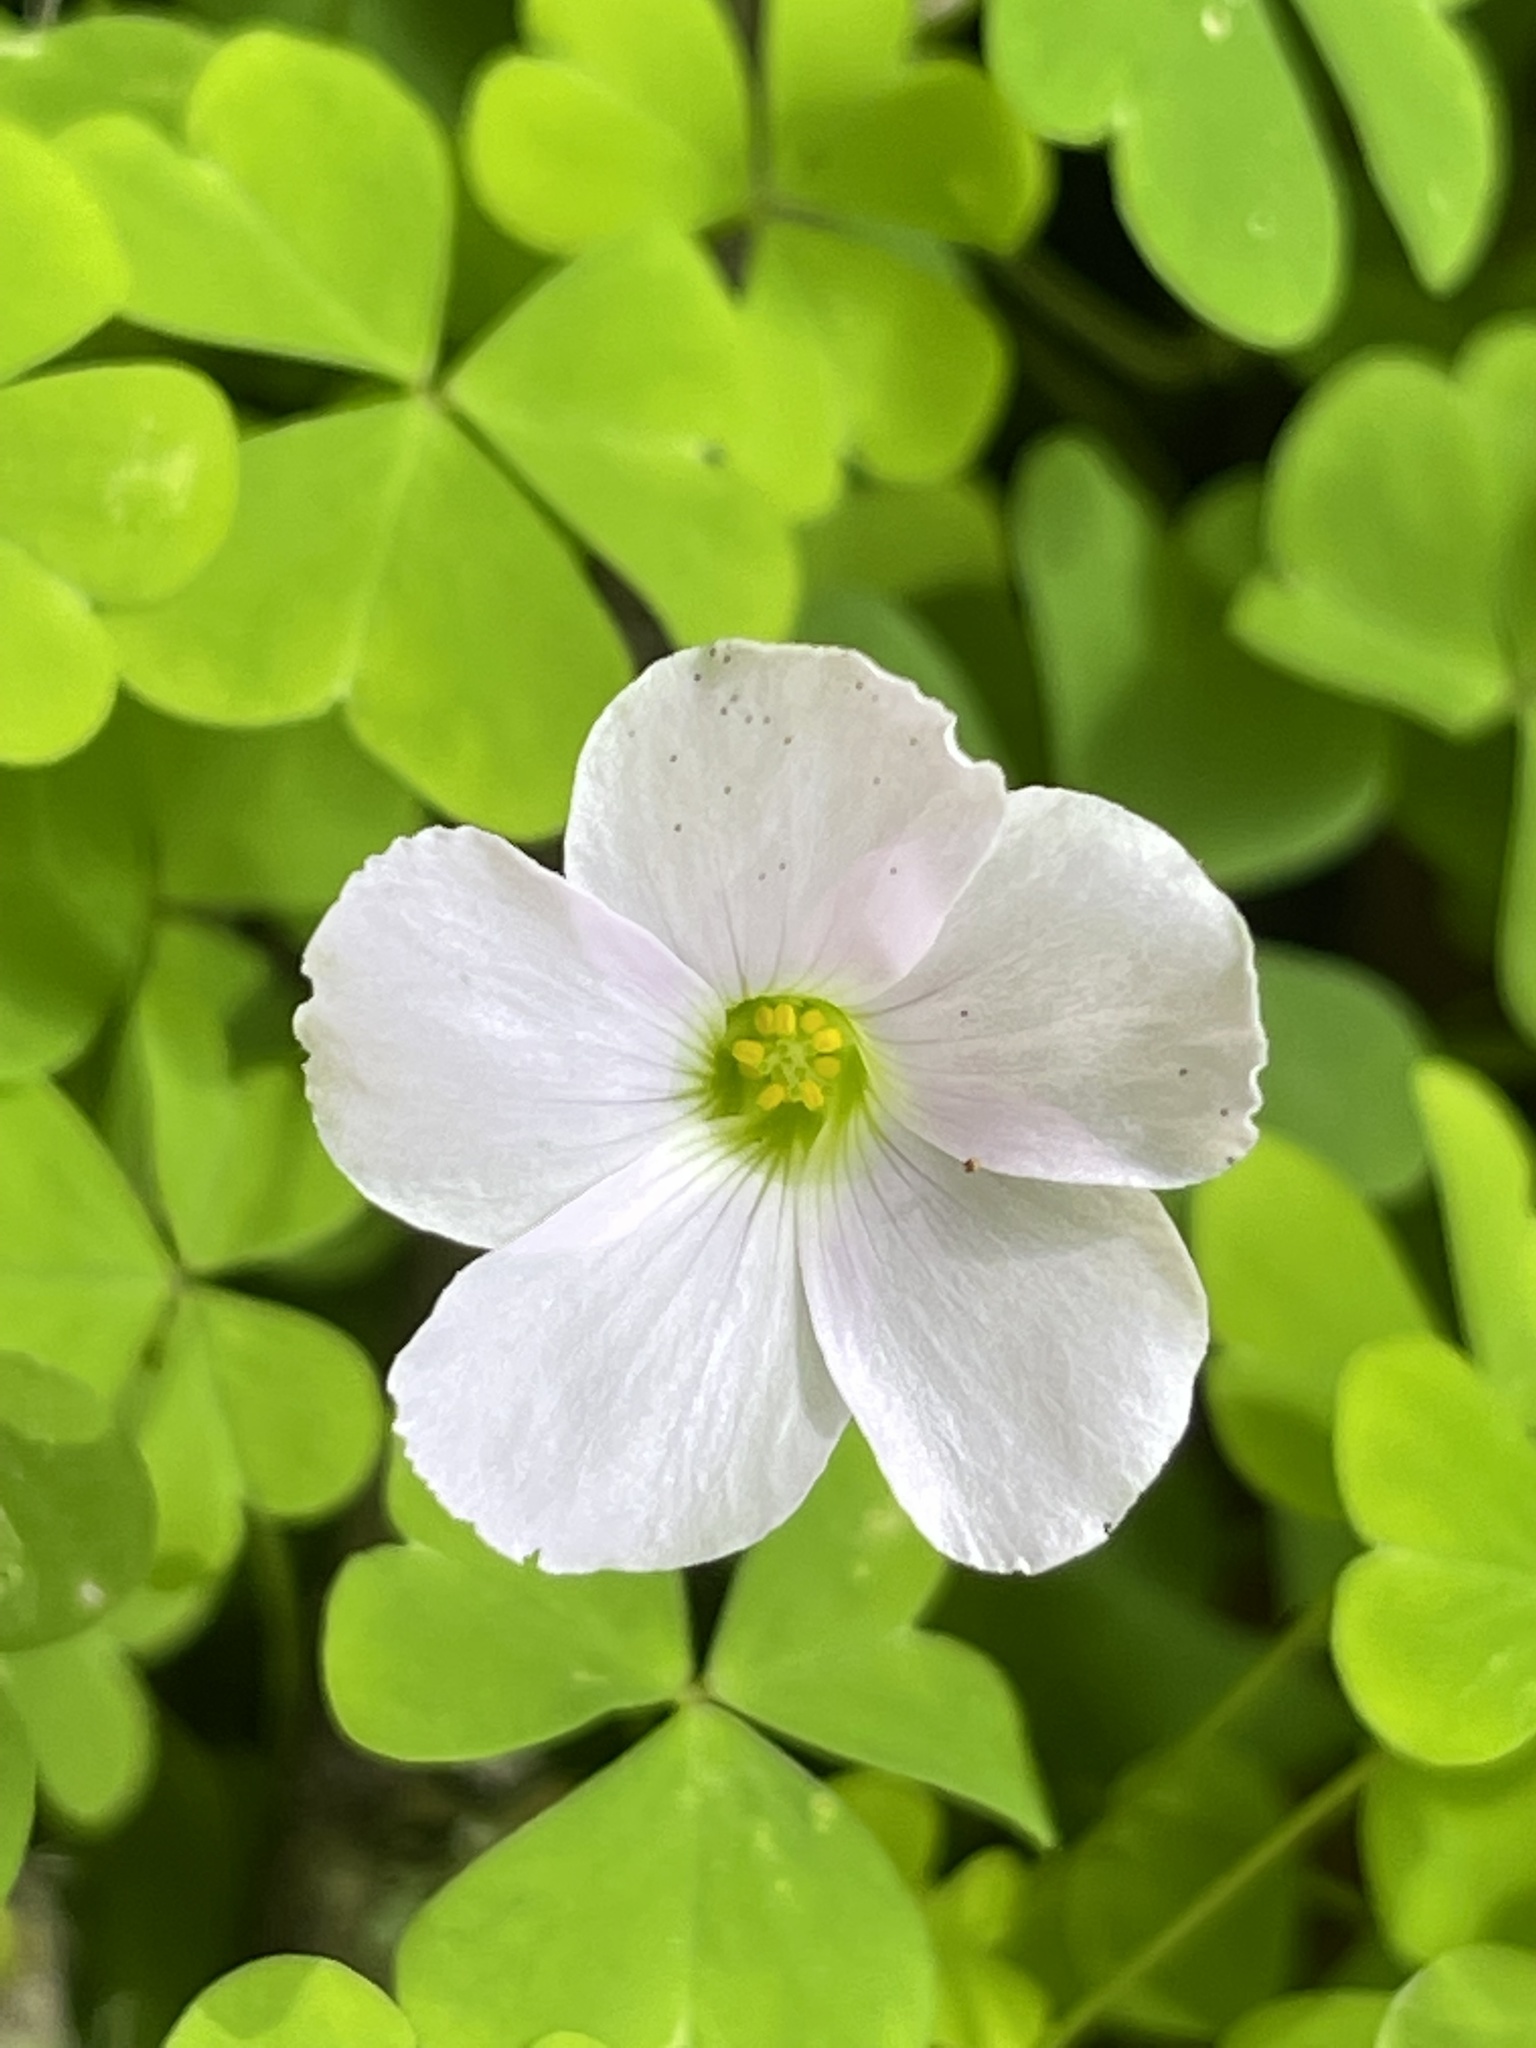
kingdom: Plantae
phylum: Tracheophyta
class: Magnoliopsida
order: Oxalidales
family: Oxalidaceae
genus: Oxalis
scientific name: Oxalis incarnata
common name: Pale pink-sorrel
